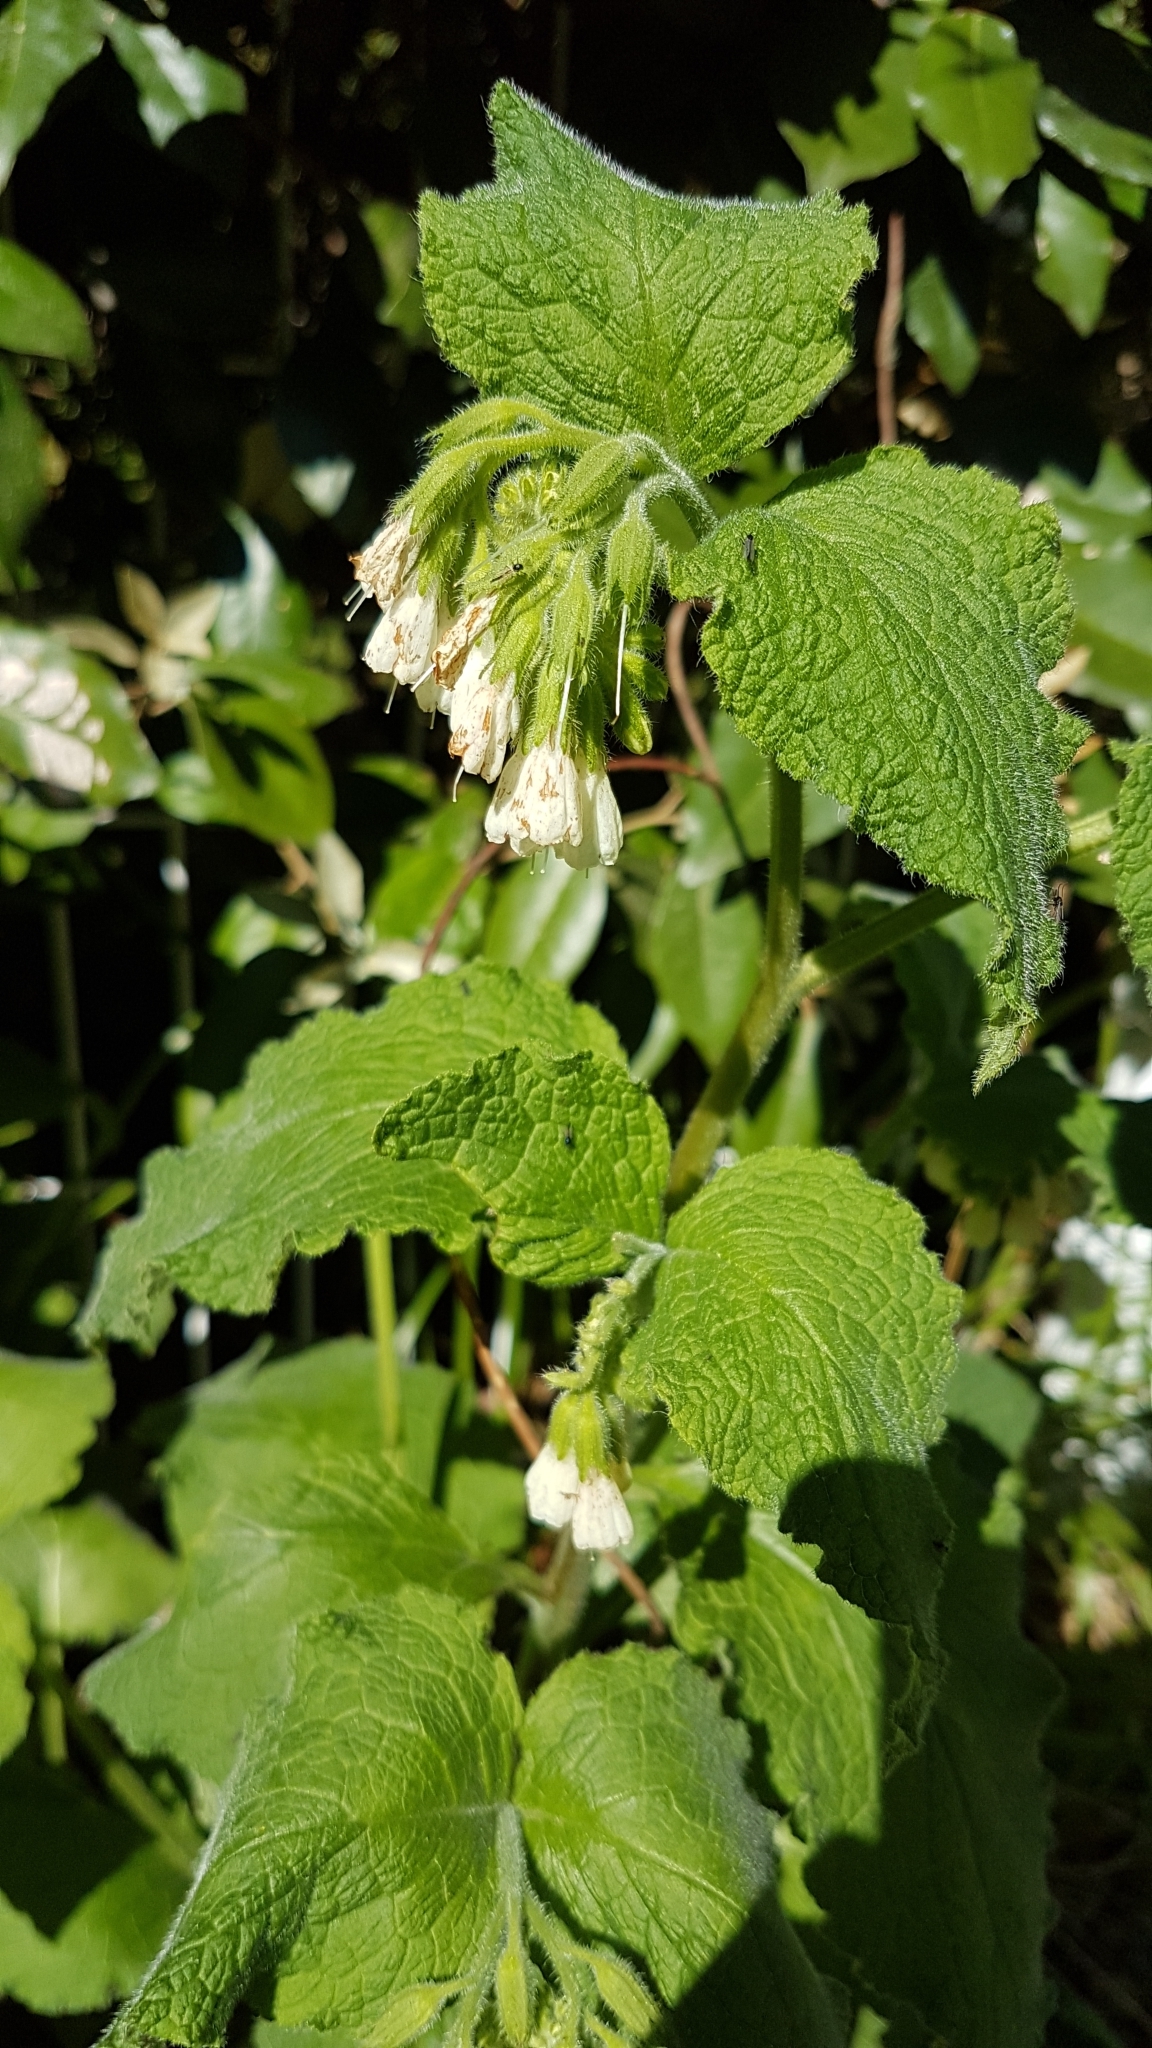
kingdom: Plantae
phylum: Tracheophyta
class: Magnoliopsida
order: Boraginales
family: Boraginaceae
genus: Symphytum
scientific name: Symphytum orientale
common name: White comfrey
